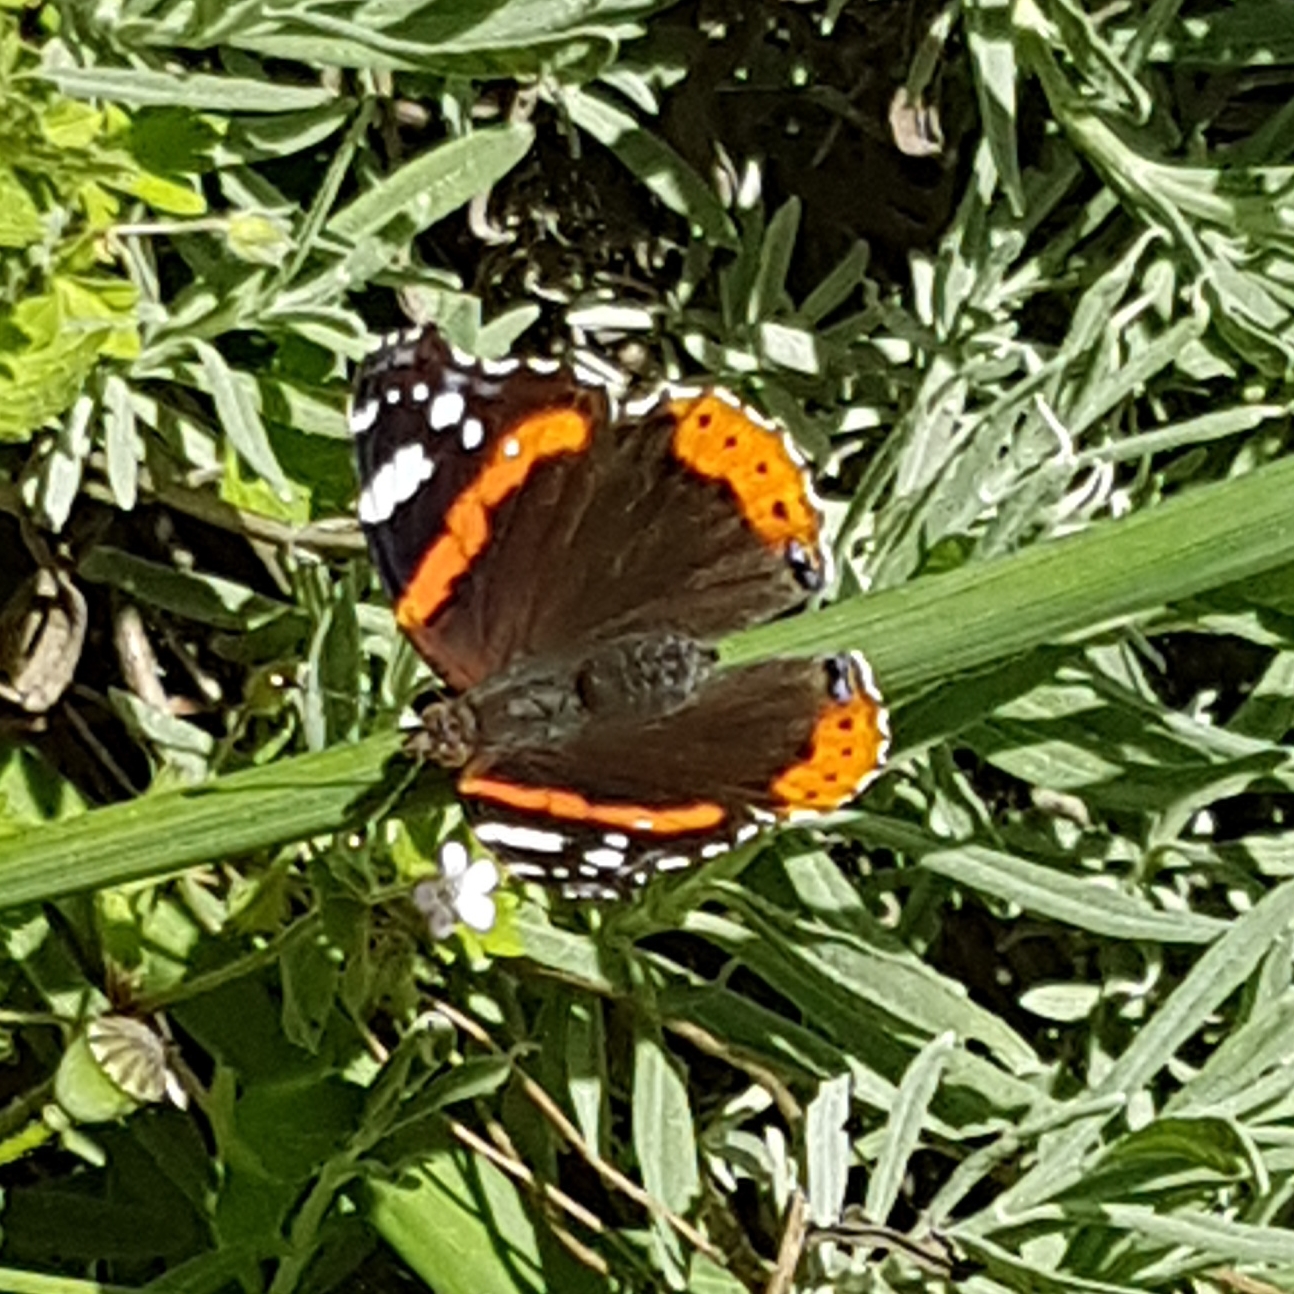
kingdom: Animalia
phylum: Arthropoda
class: Insecta
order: Lepidoptera
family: Nymphalidae
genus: Vanessa
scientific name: Vanessa atalanta
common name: Red admiral
